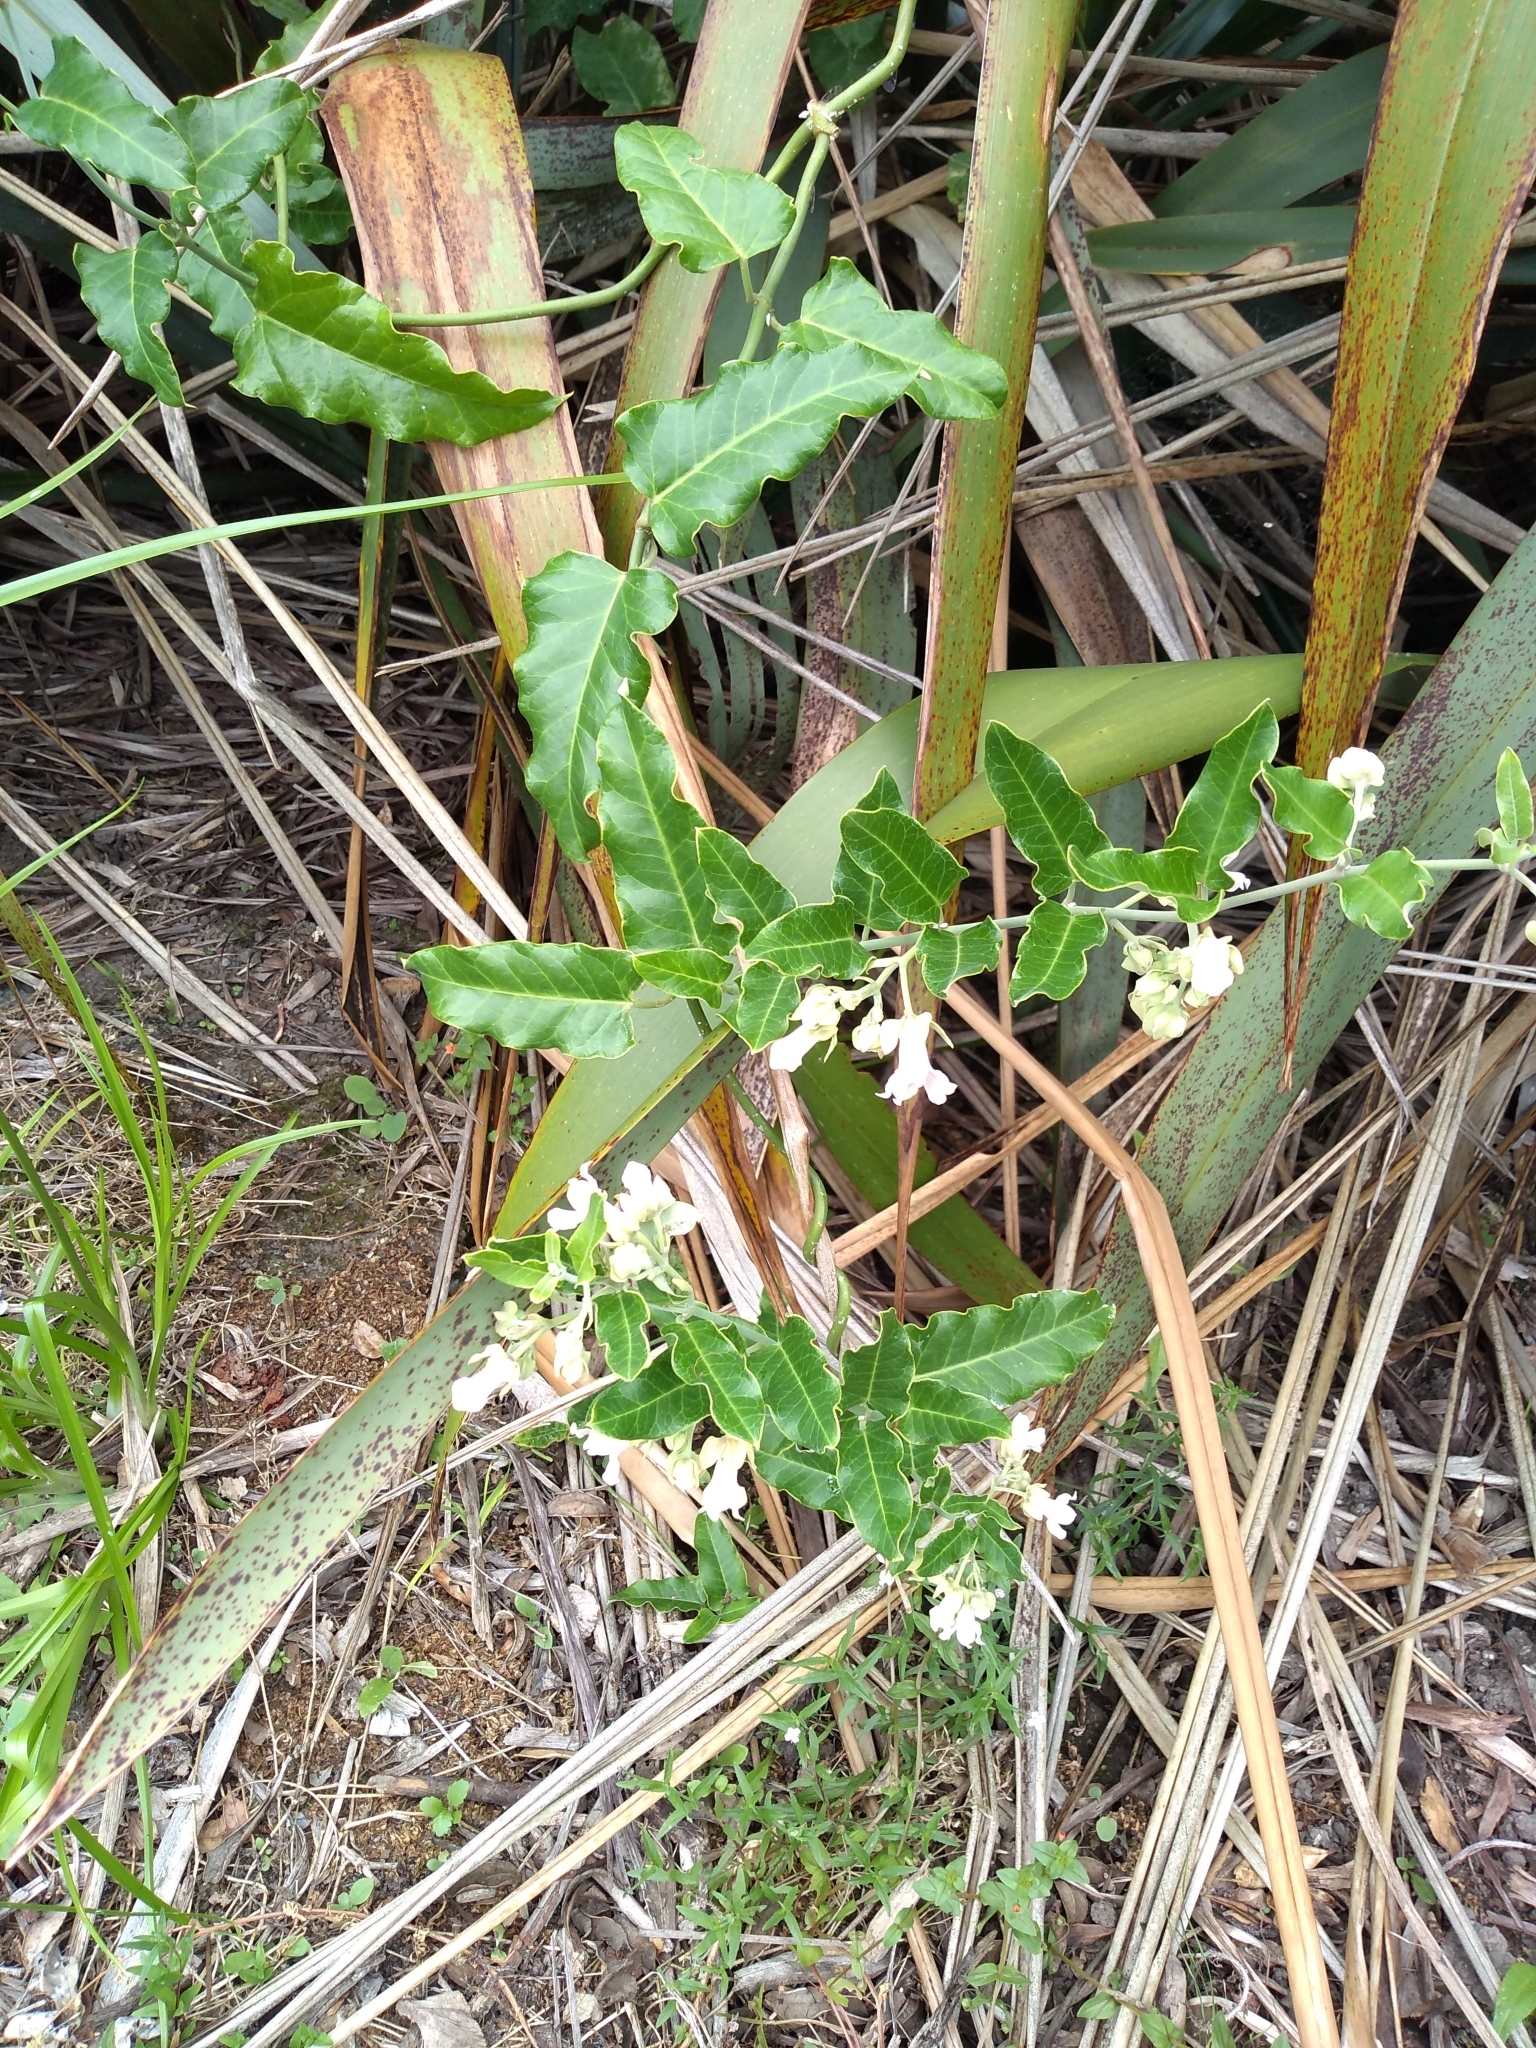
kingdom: Plantae
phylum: Tracheophyta
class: Magnoliopsida
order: Gentianales
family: Apocynaceae
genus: Araujia
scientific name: Araujia sericifera
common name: White bladderflower
